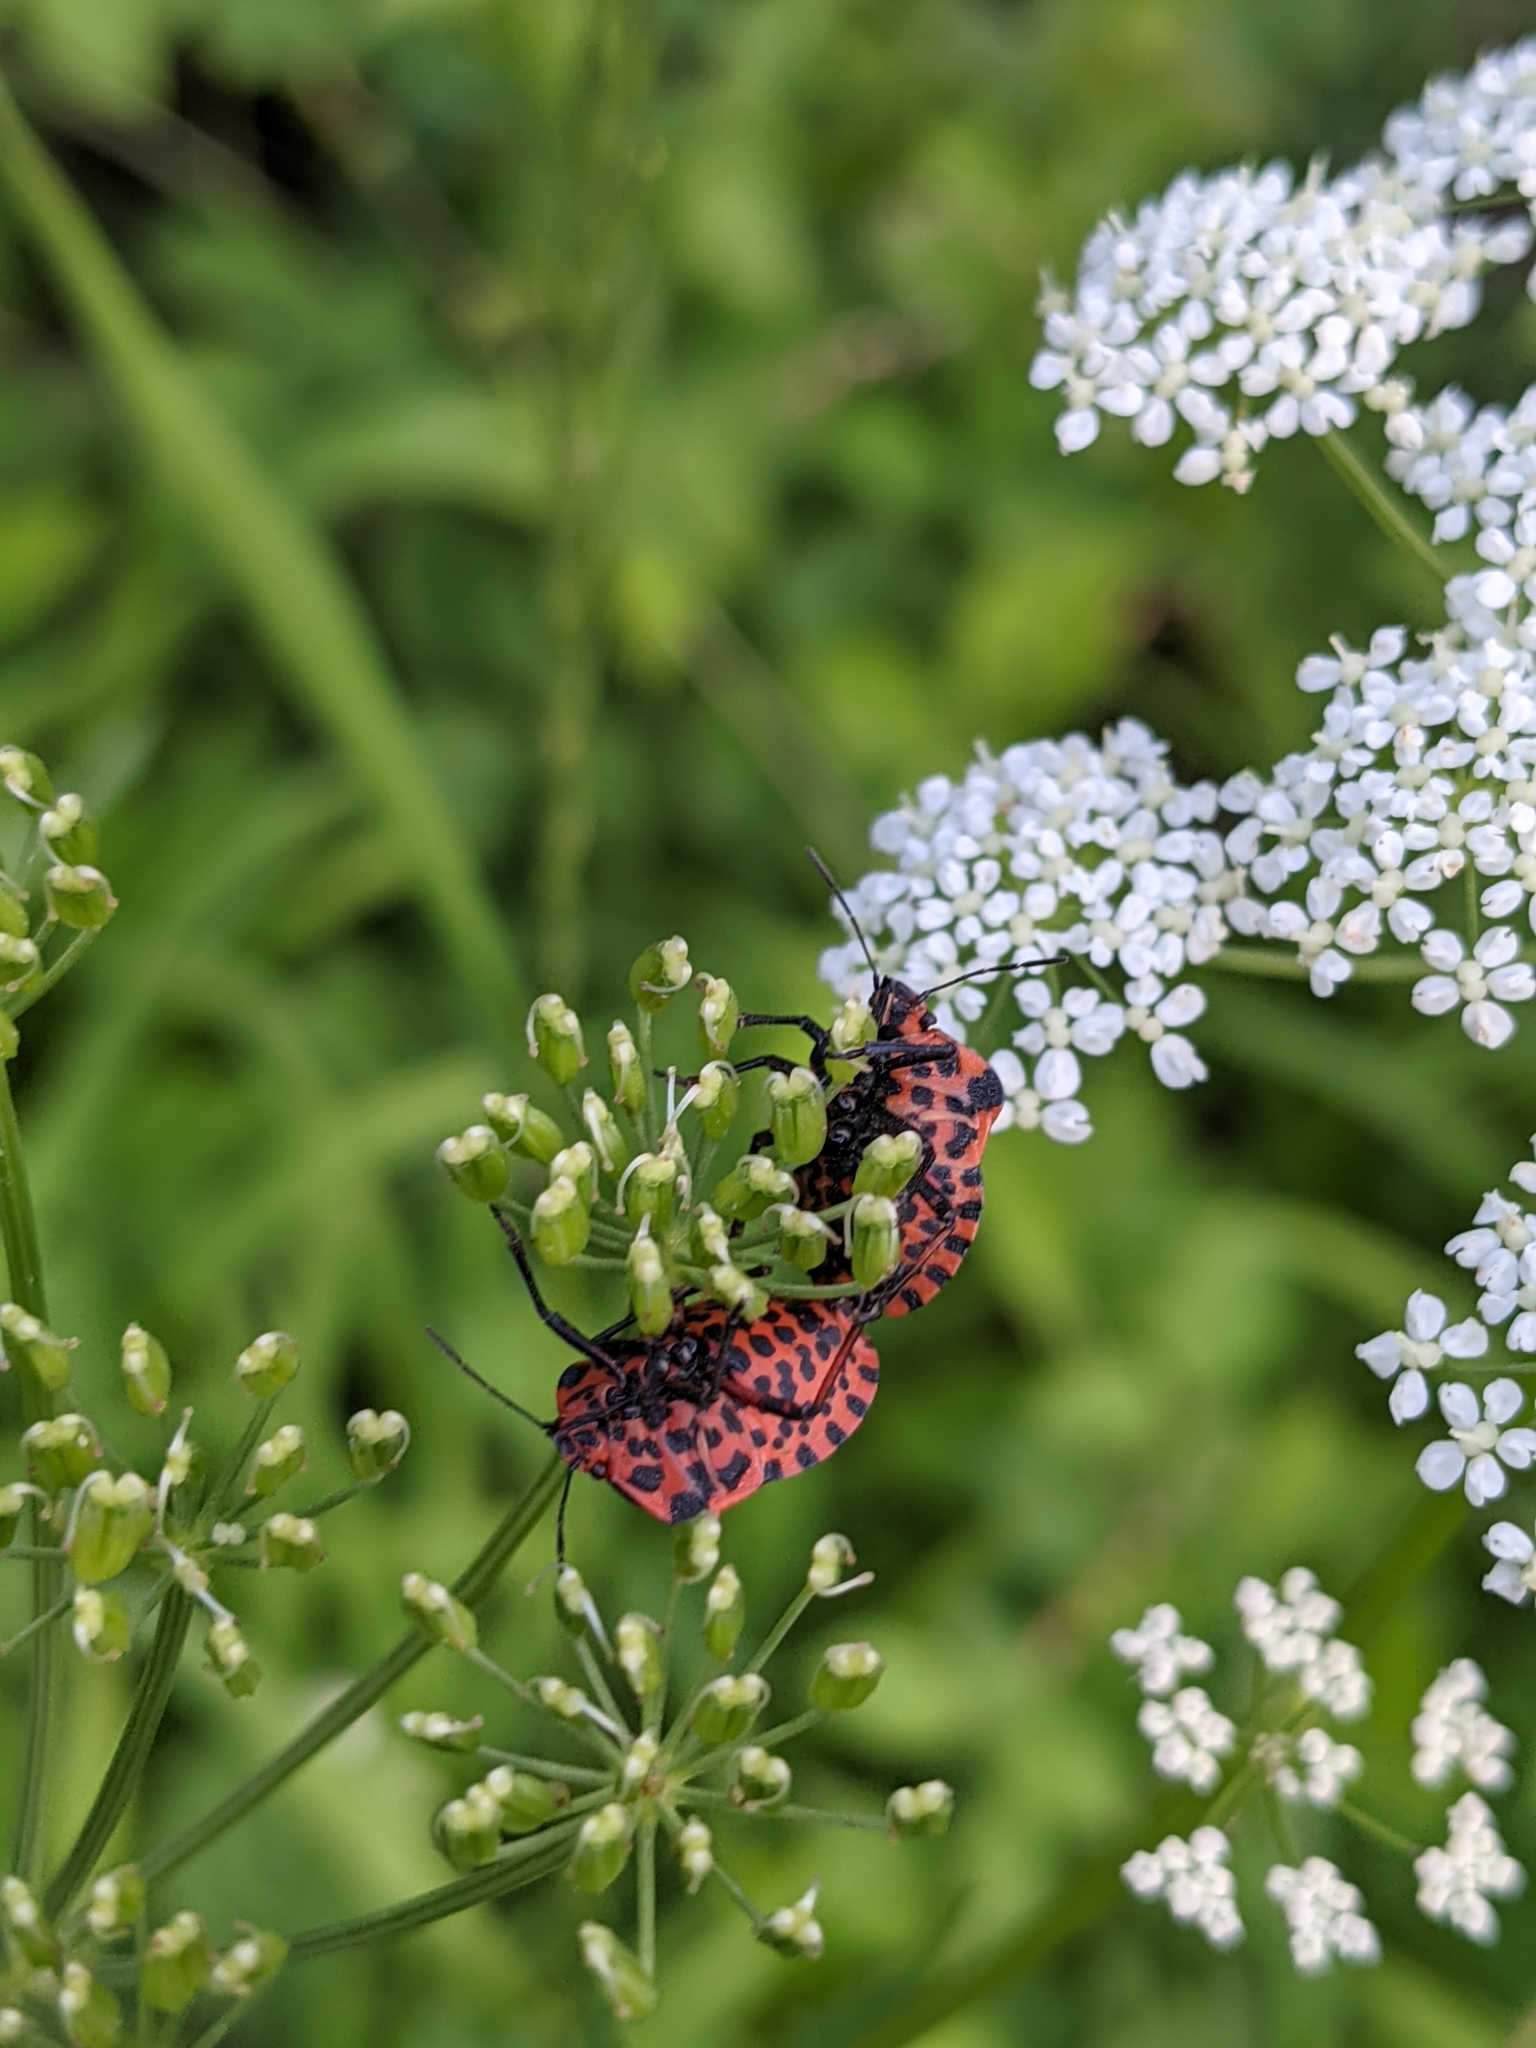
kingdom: Animalia
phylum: Arthropoda
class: Insecta
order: Hemiptera
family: Pentatomidae
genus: Graphosoma
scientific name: Graphosoma italicum
